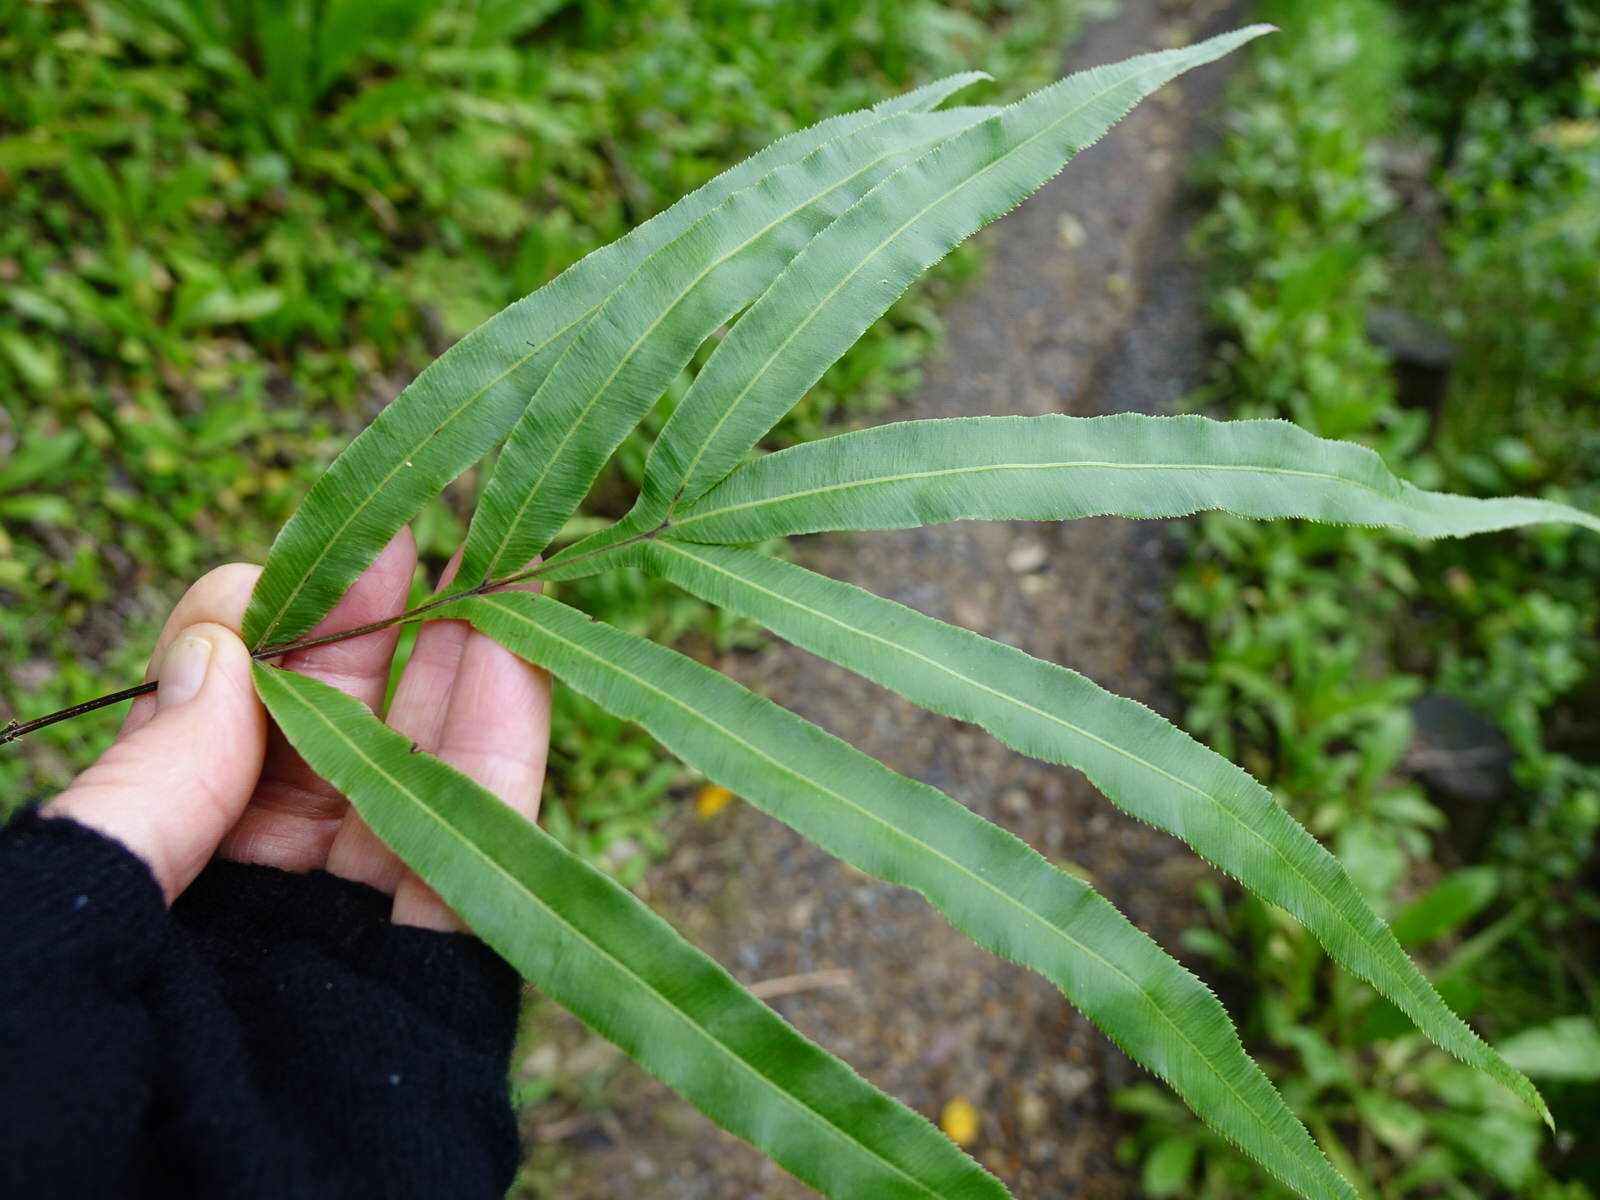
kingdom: Plantae
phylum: Tracheophyta
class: Polypodiopsida
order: Polypodiales
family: Pteridaceae
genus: Pteris
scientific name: Pteris cretica
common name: Ribbon fern
